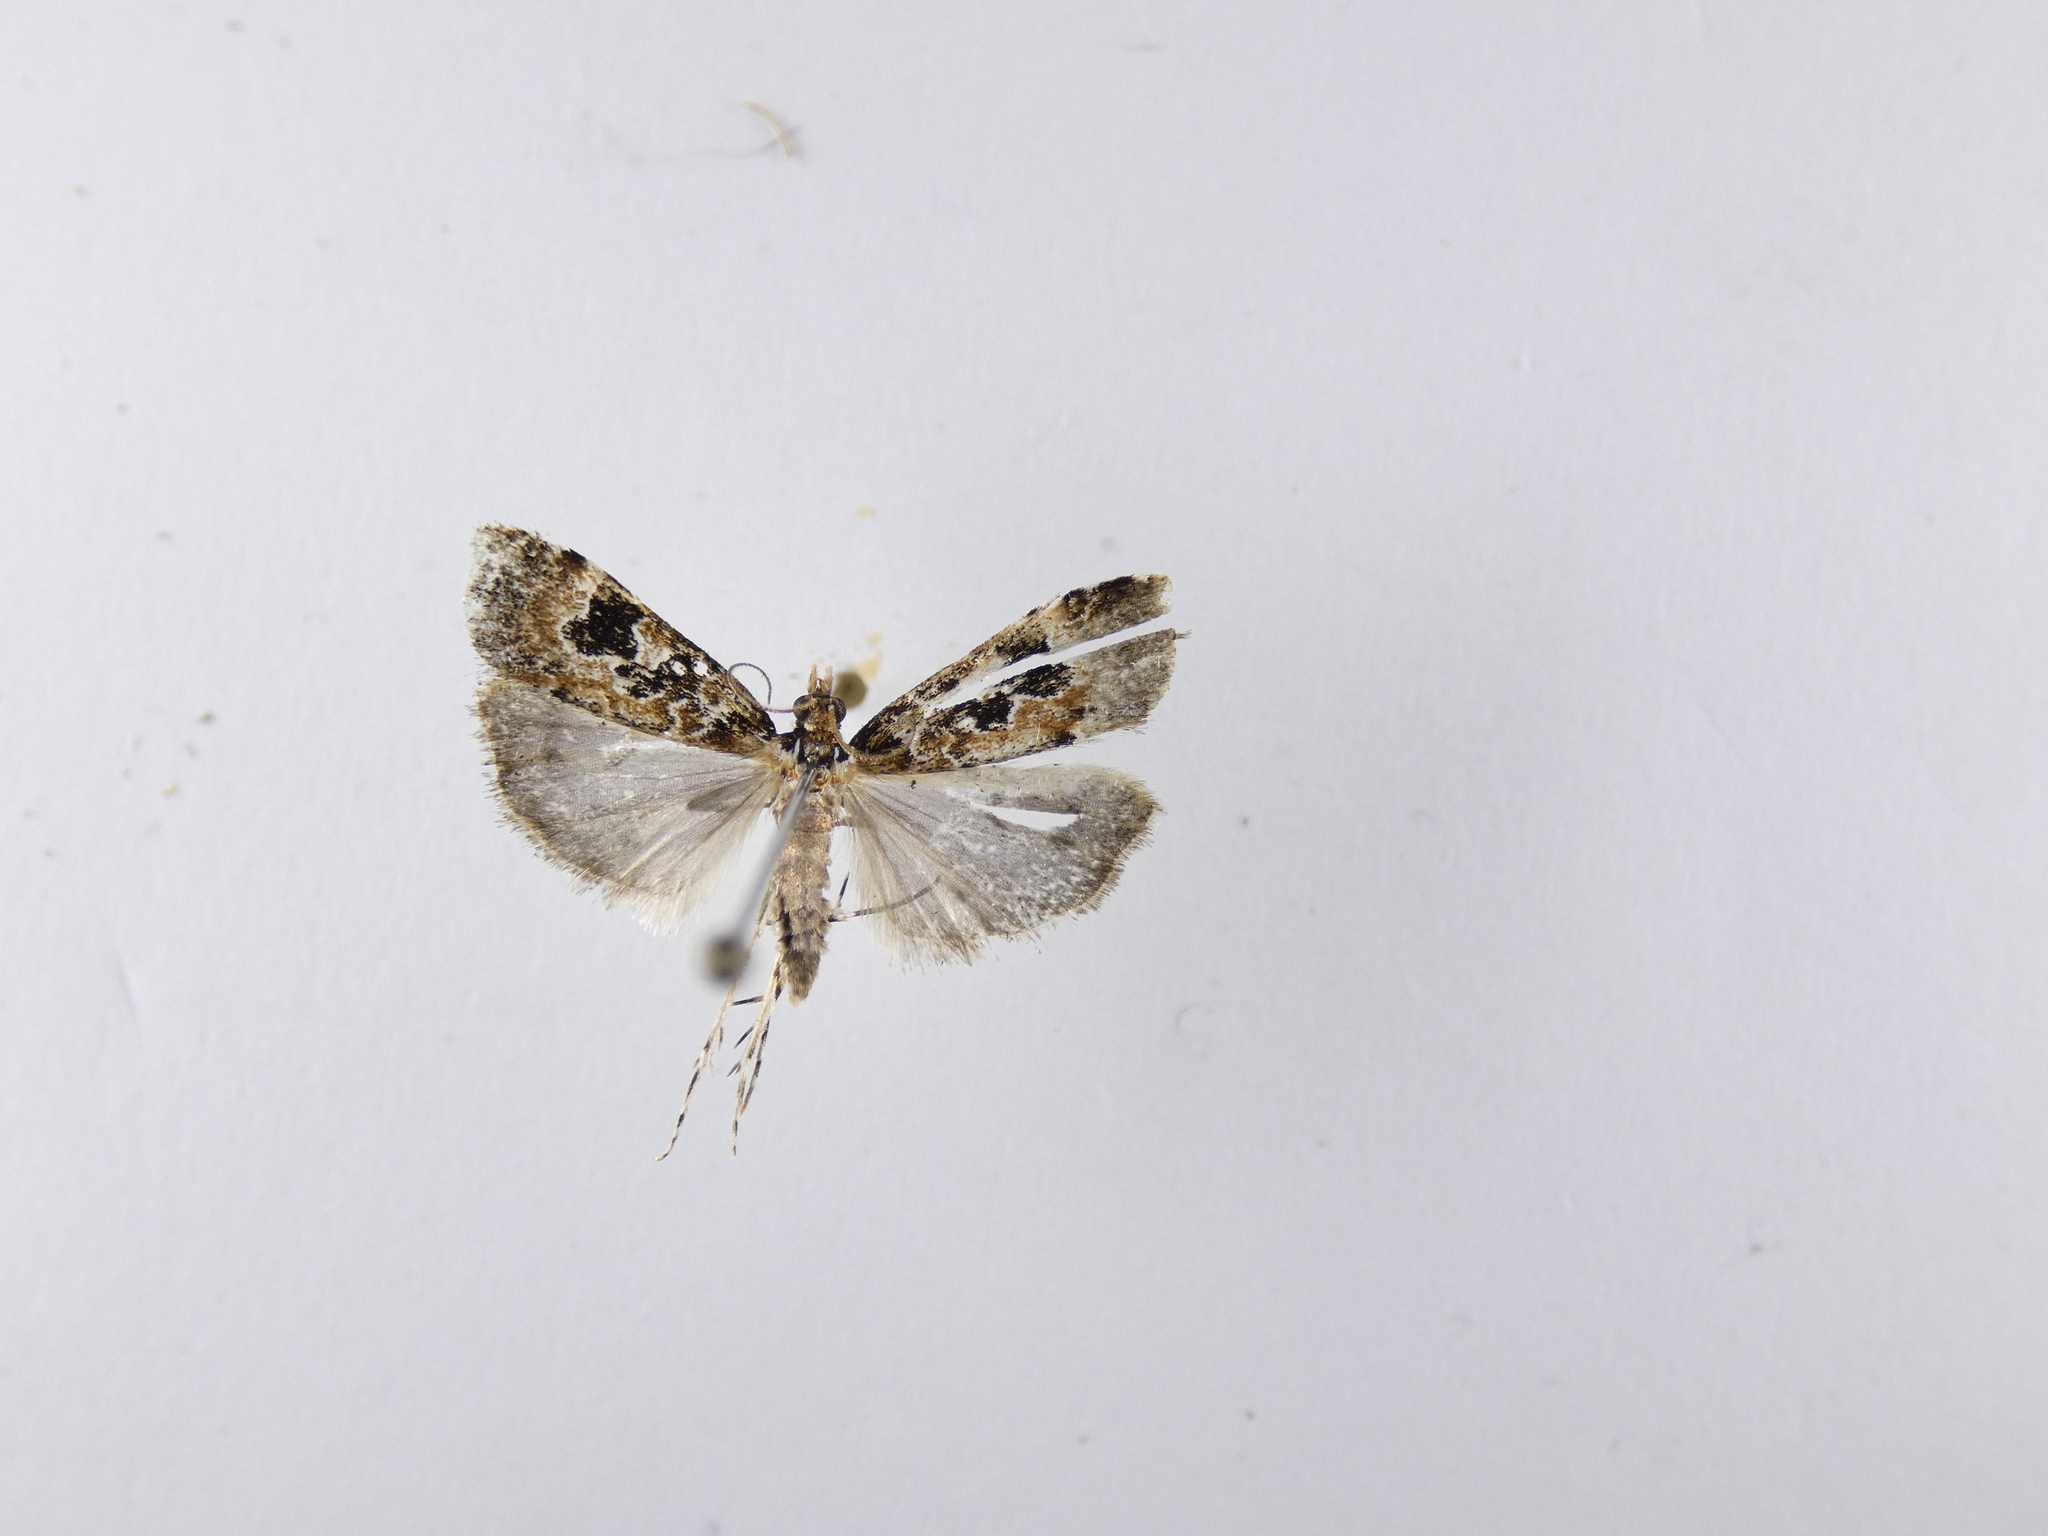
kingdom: Animalia
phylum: Arthropoda
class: Insecta
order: Lepidoptera
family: Crambidae
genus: Scoparia
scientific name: Scoparia ustimacula
